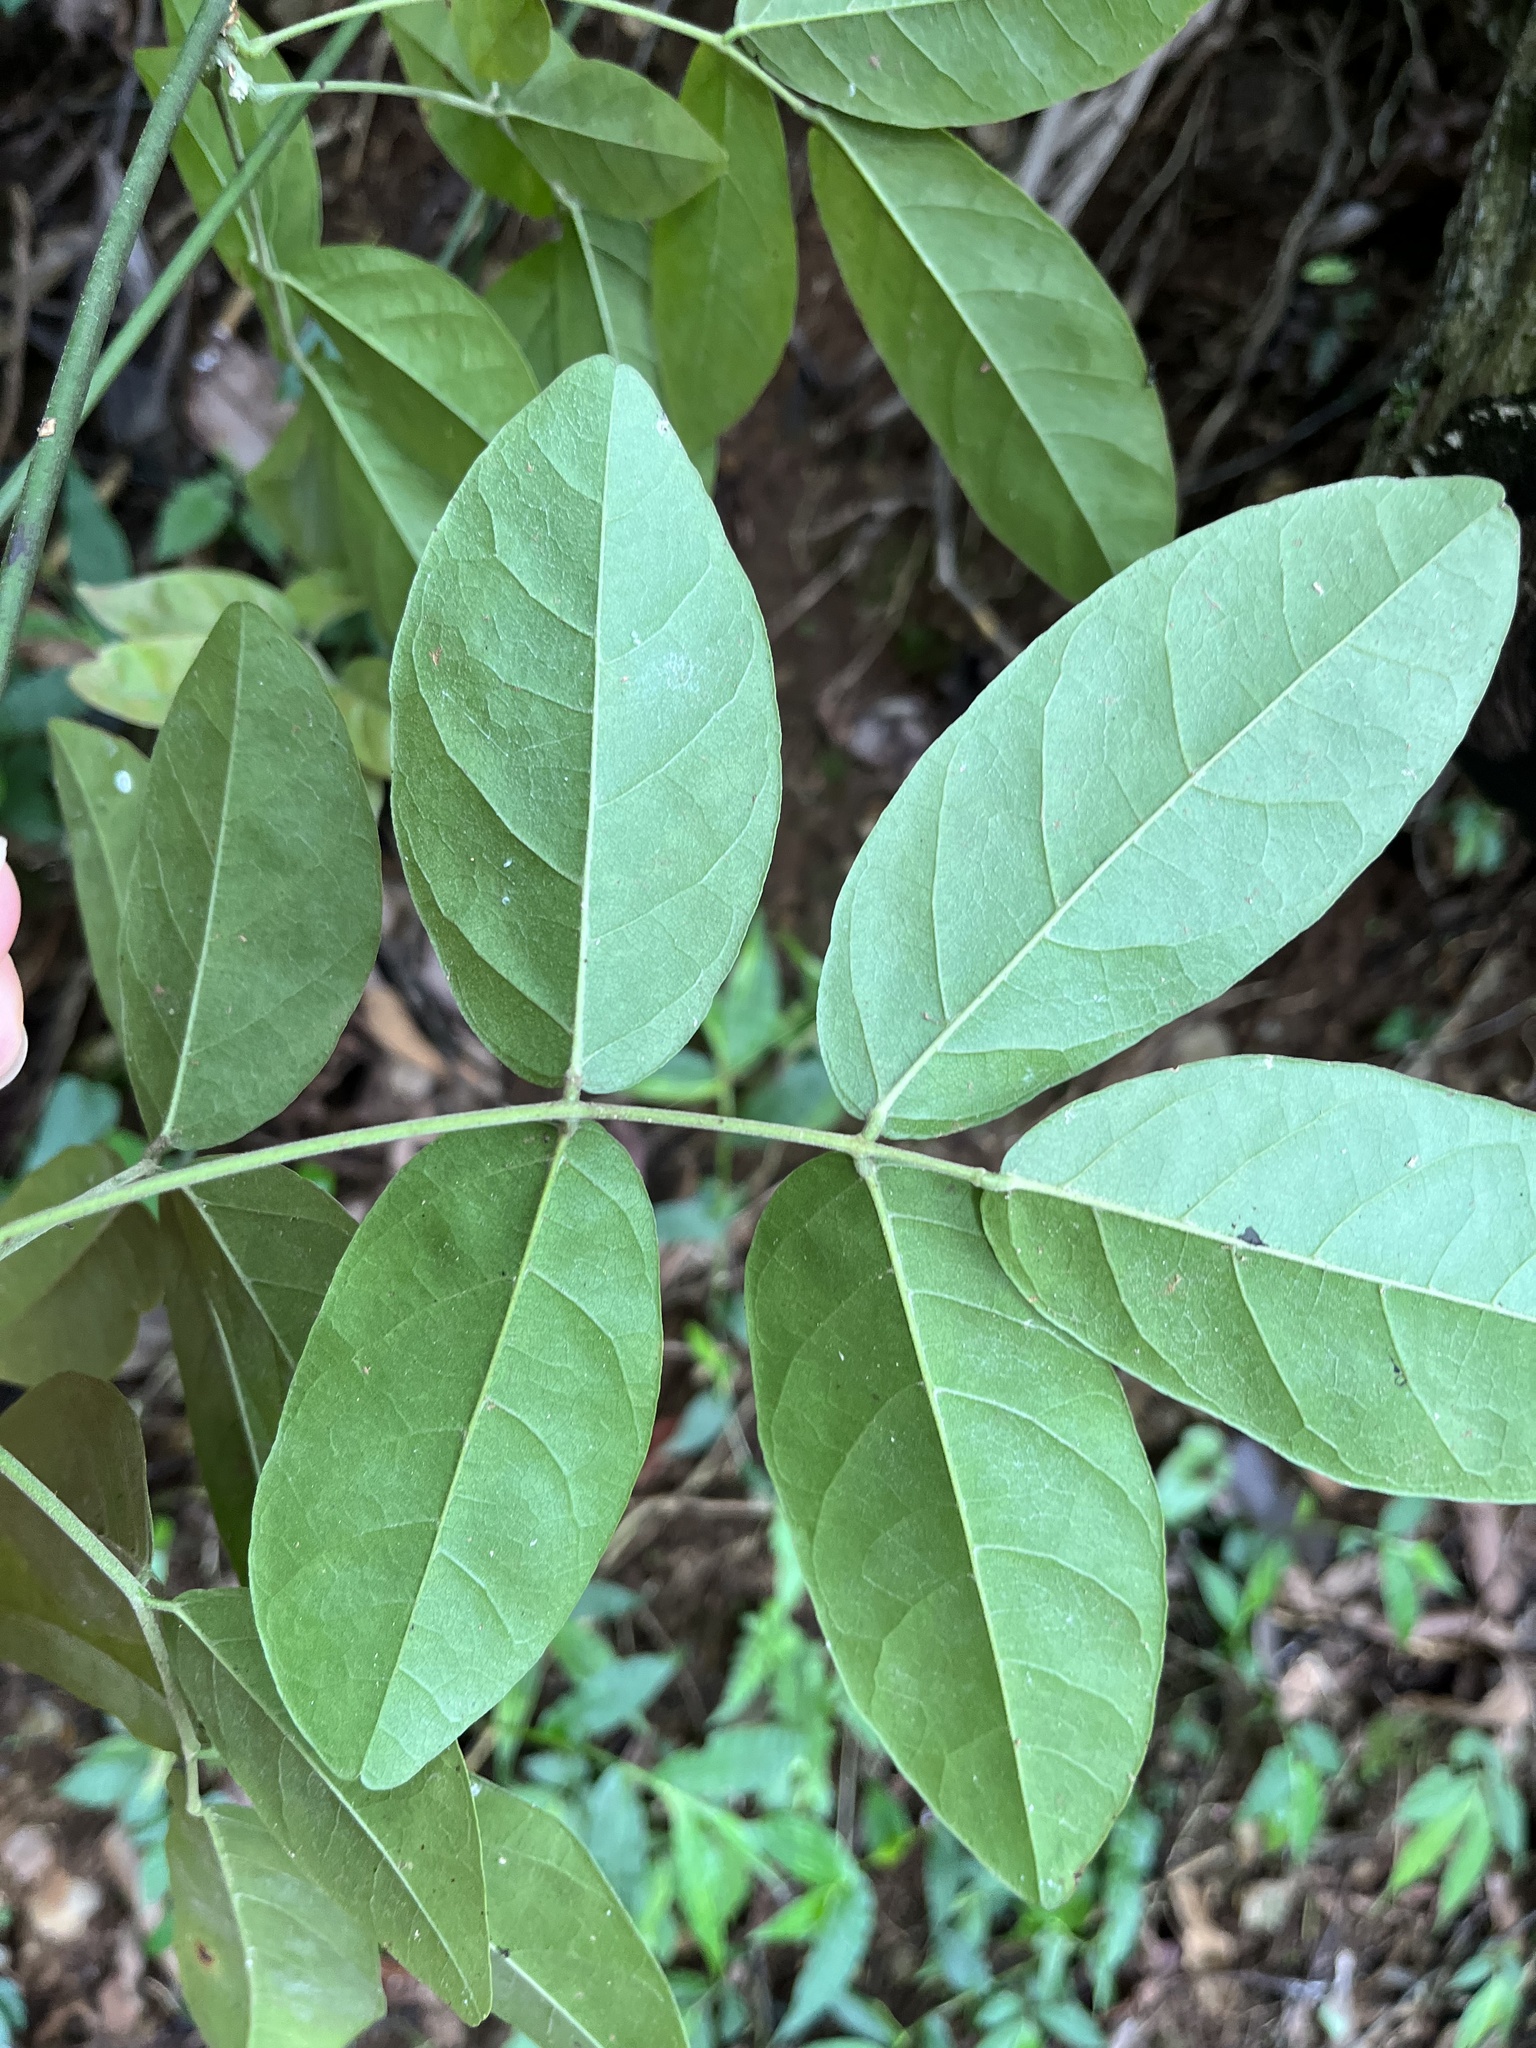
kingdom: Plantae
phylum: Tracheophyta
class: Magnoliopsida
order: Fabales
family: Fabaceae
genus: Wisteriopsis
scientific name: Wisteriopsis reticulata
